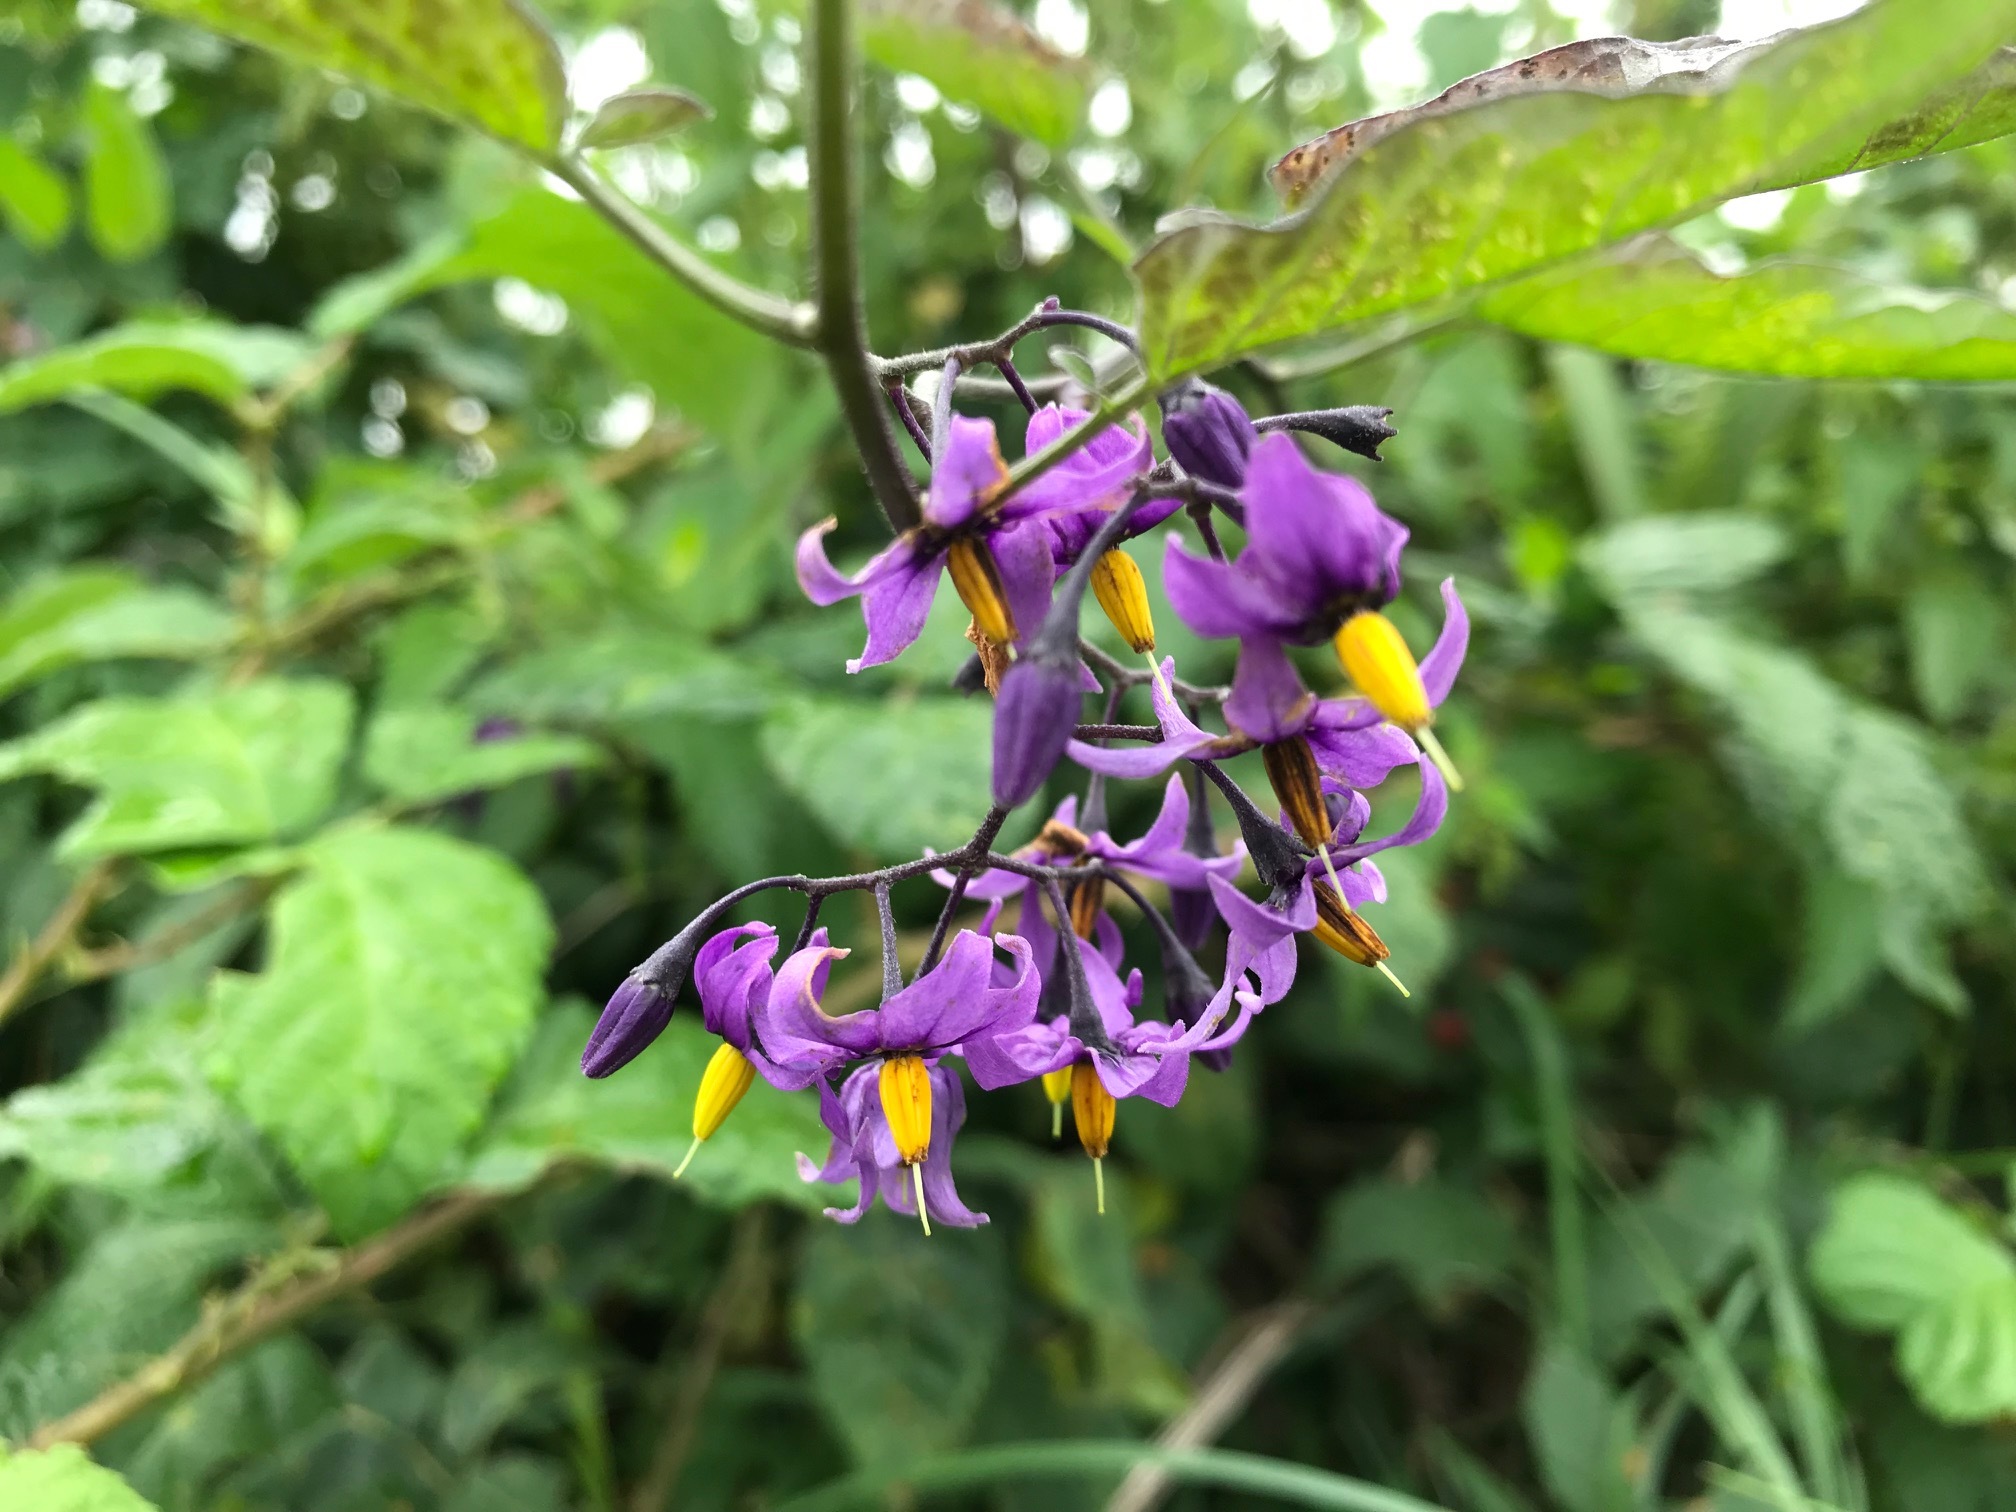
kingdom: Plantae
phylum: Tracheophyta
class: Magnoliopsida
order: Solanales
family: Solanaceae
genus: Solanum
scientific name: Solanum dulcamara
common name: Climbing nightshade
